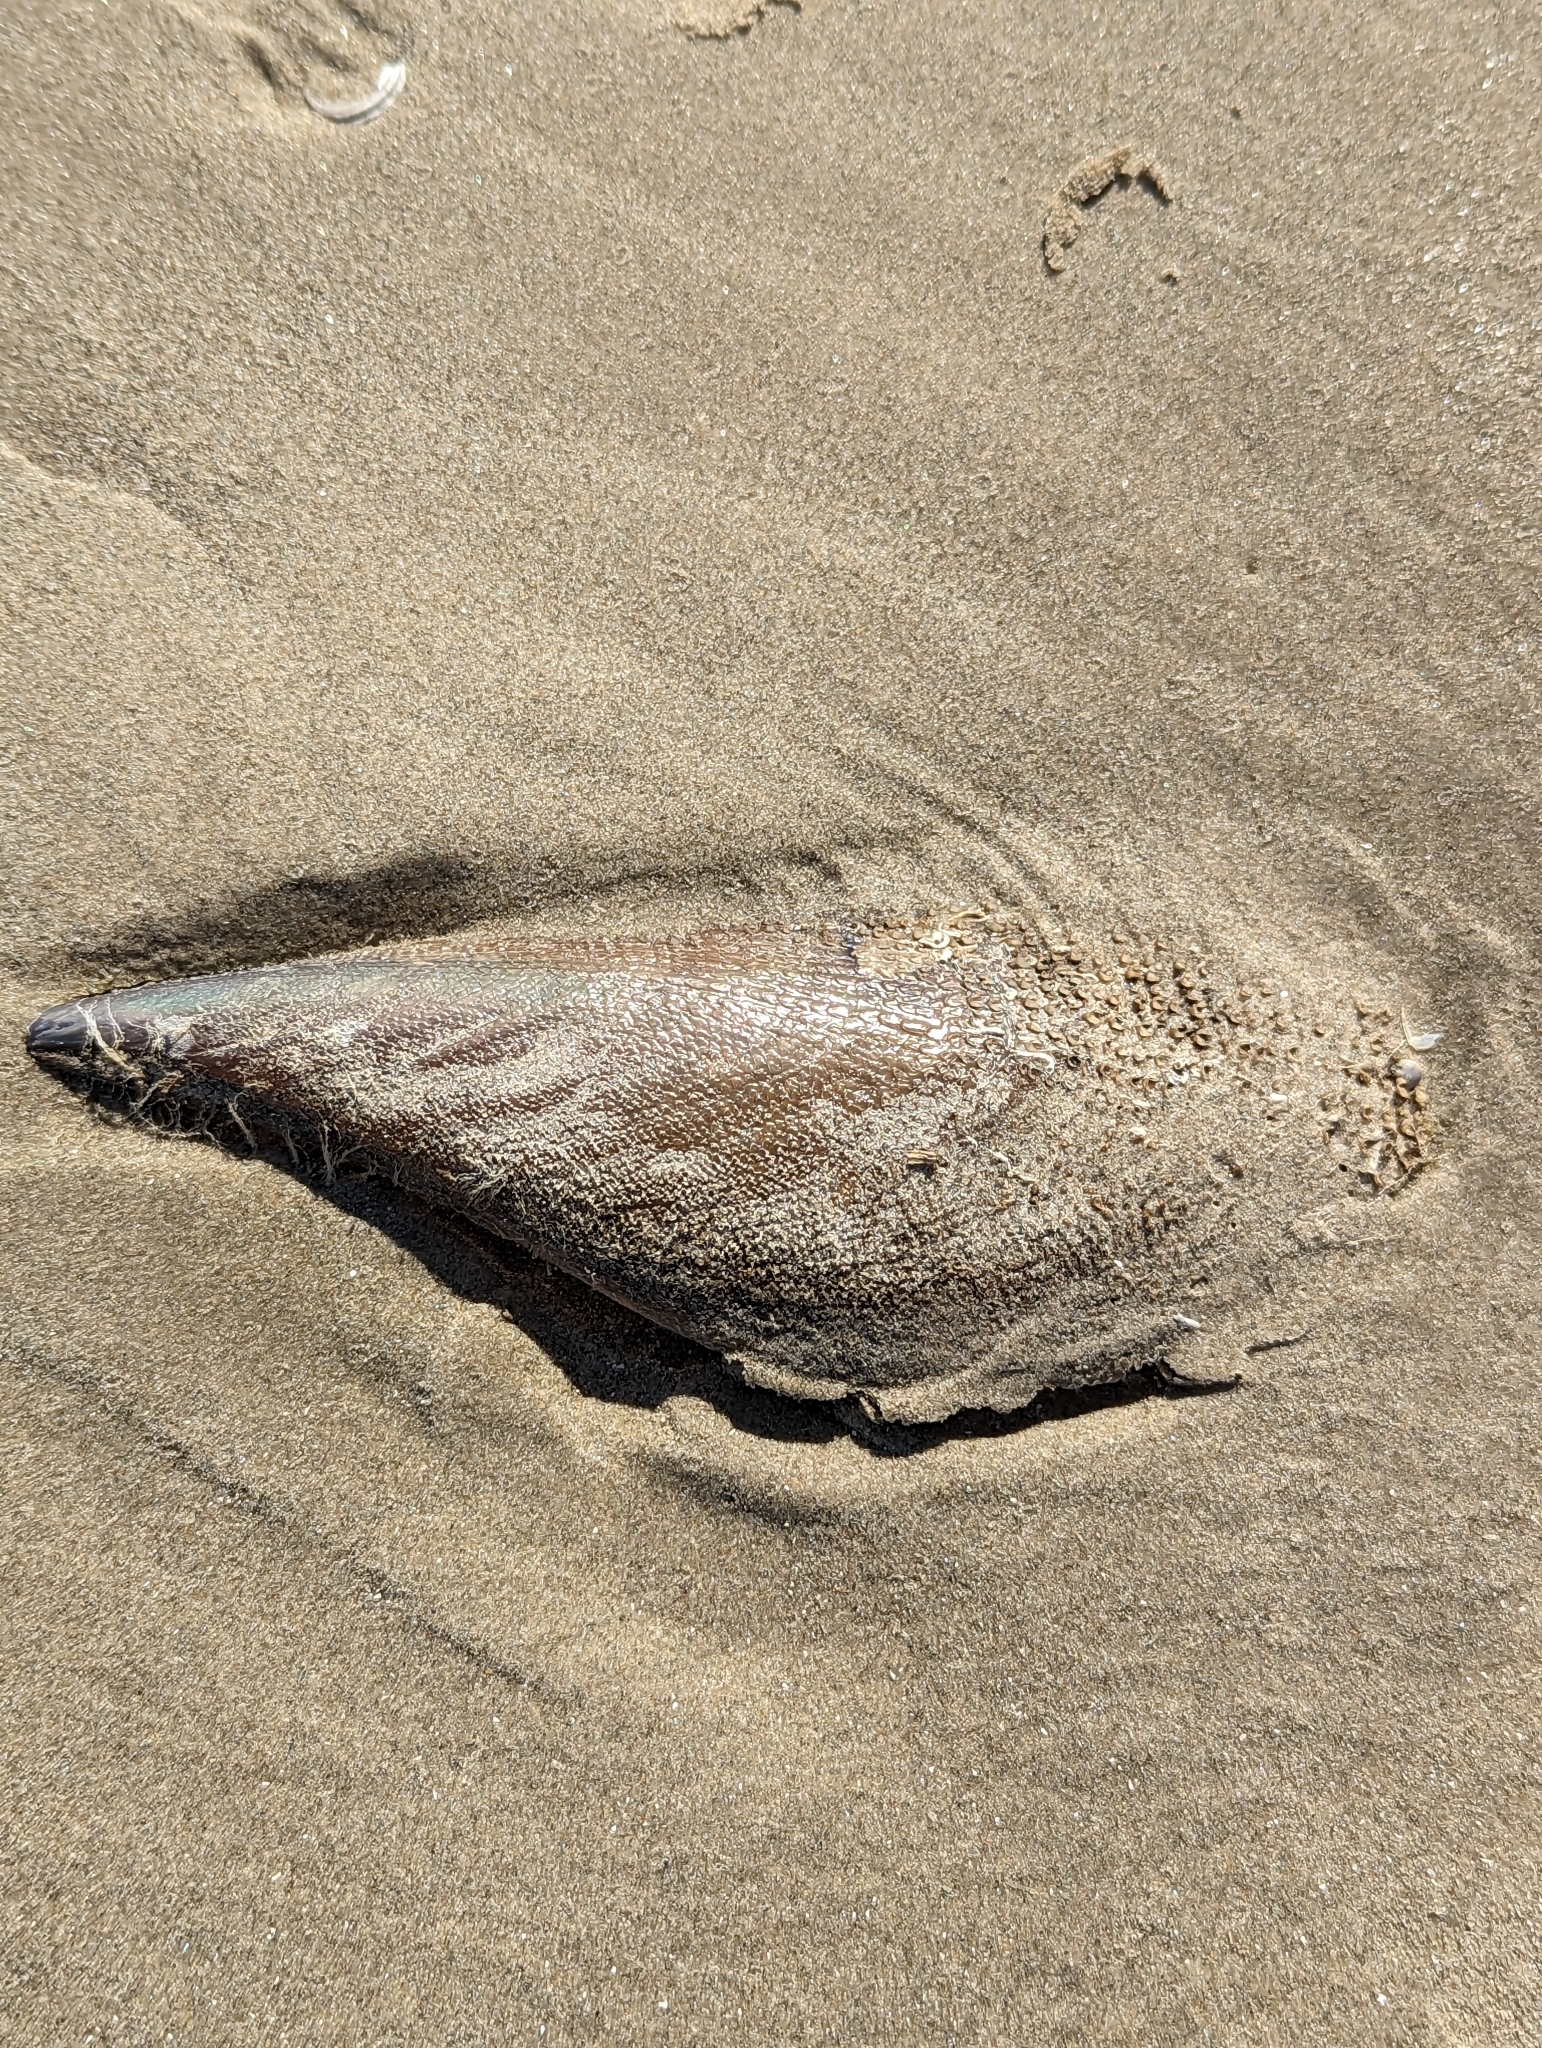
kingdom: Animalia
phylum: Mollusca
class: Bivalvia
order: Ostreida
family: Pinnidae
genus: Atrina
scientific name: Atrina serrata
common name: Saw-toothed penshell
